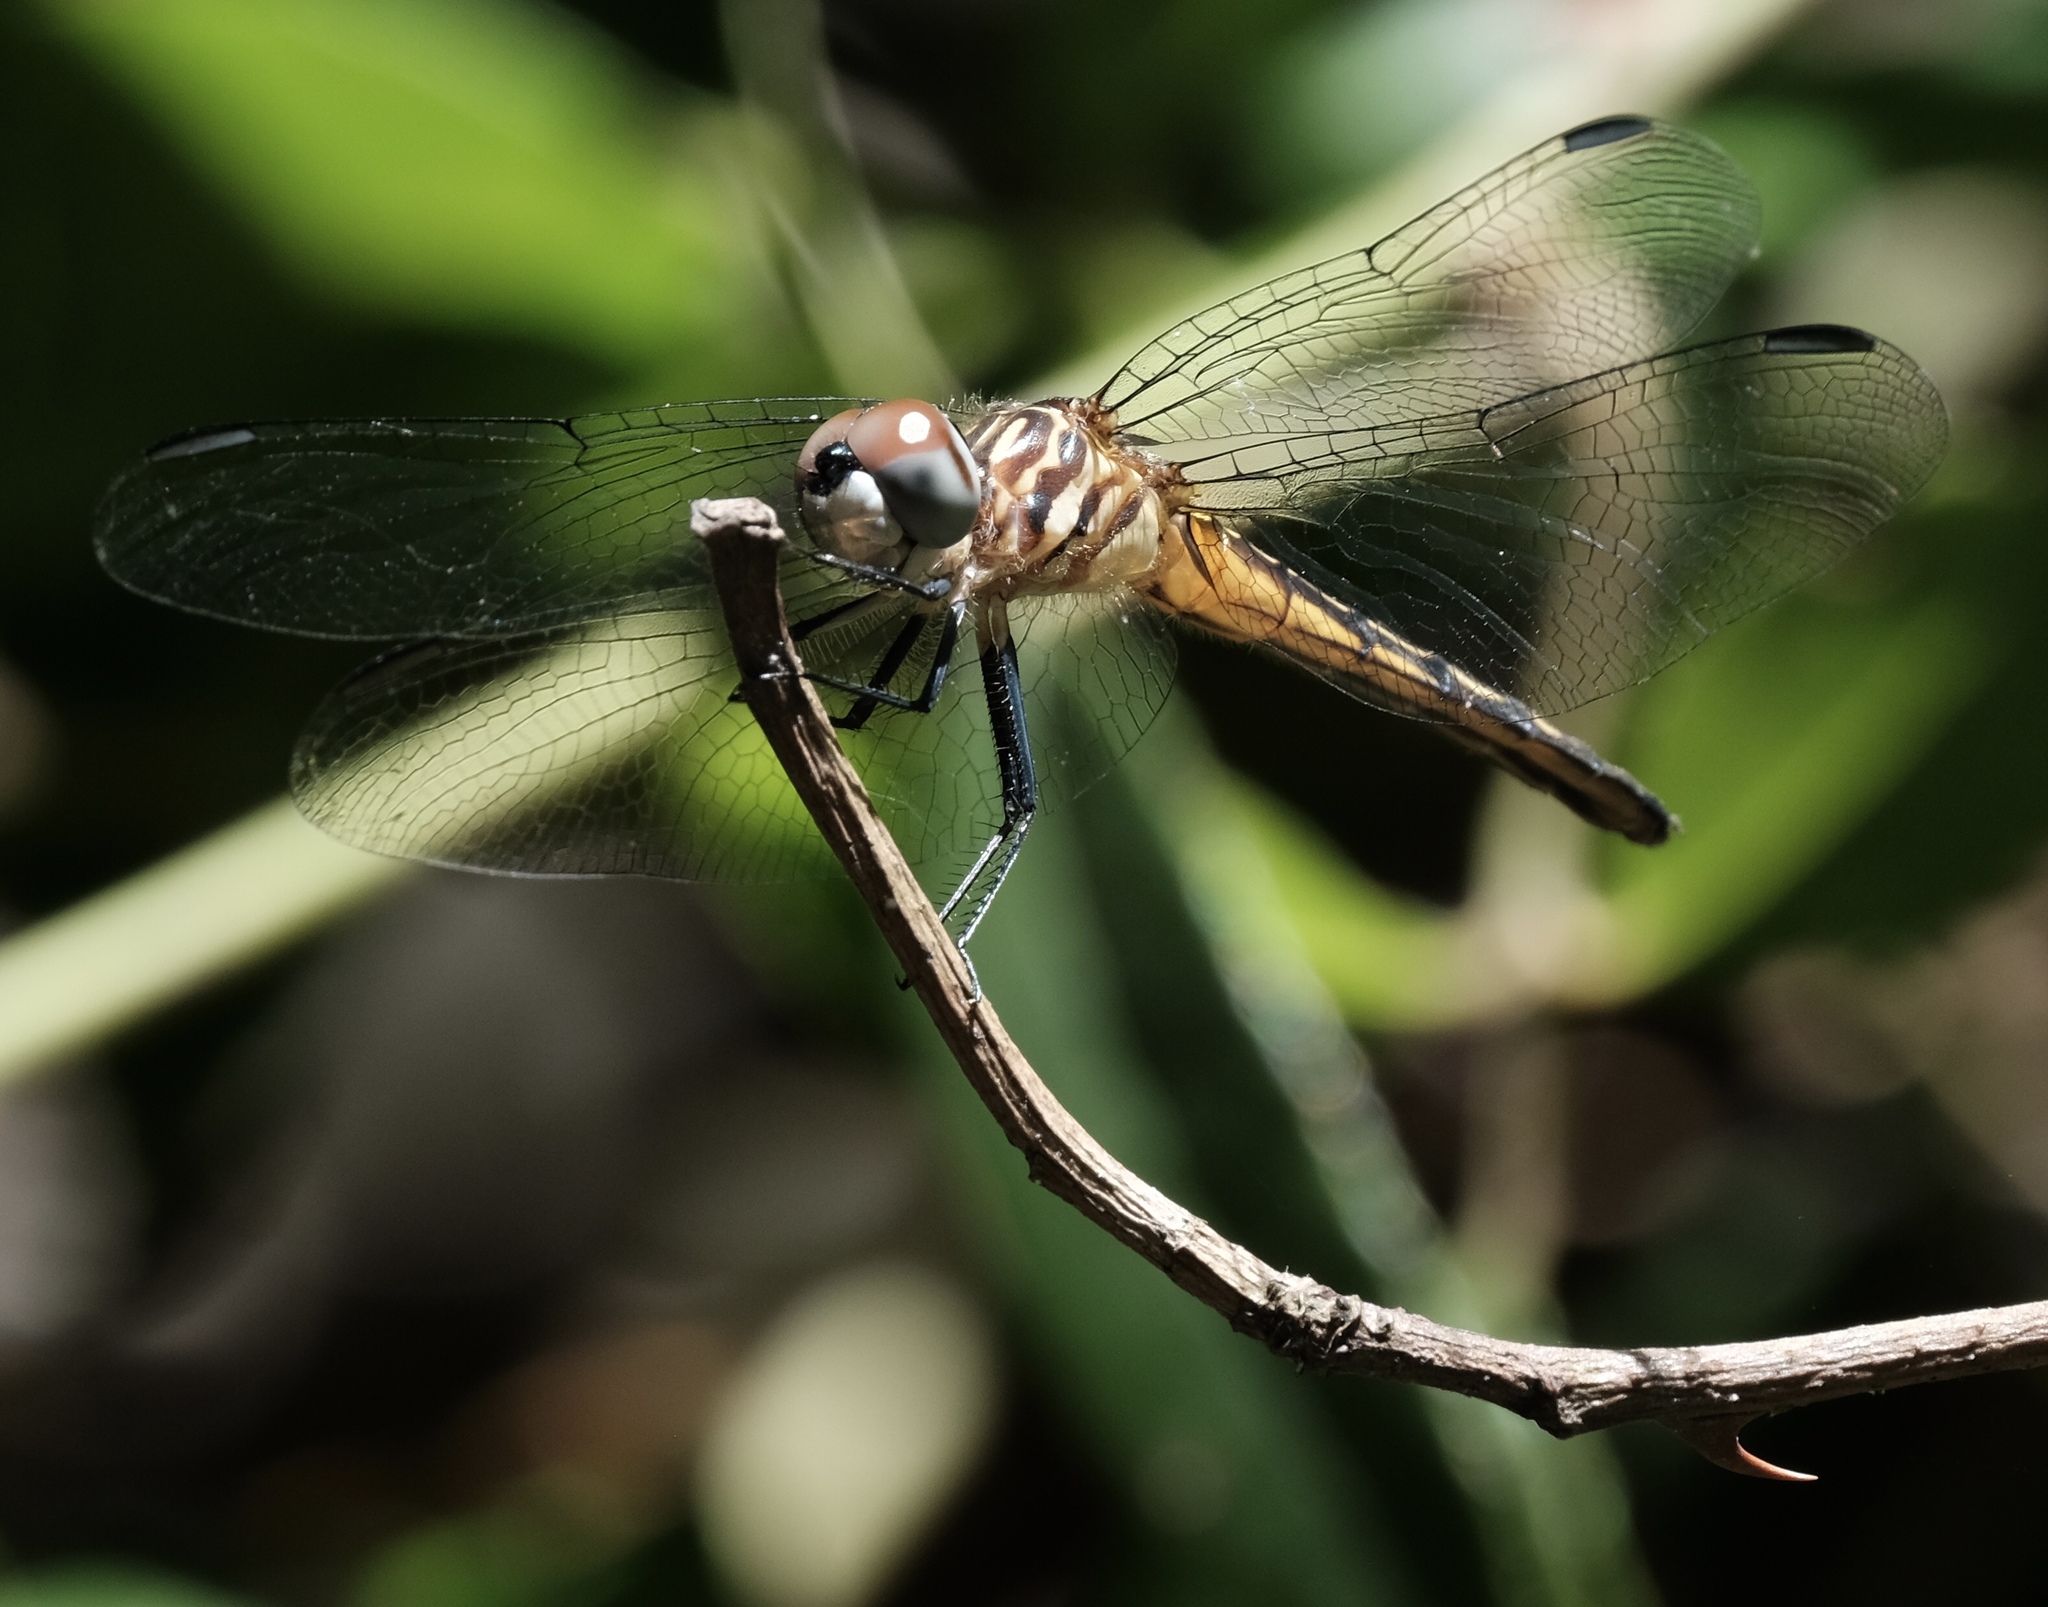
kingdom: Animalia
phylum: Arthropoda
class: Insecta
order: Odonata
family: Libellulidae
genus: Pachydiplax
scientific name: Pachydiplax longipennis
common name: Blue dasher
